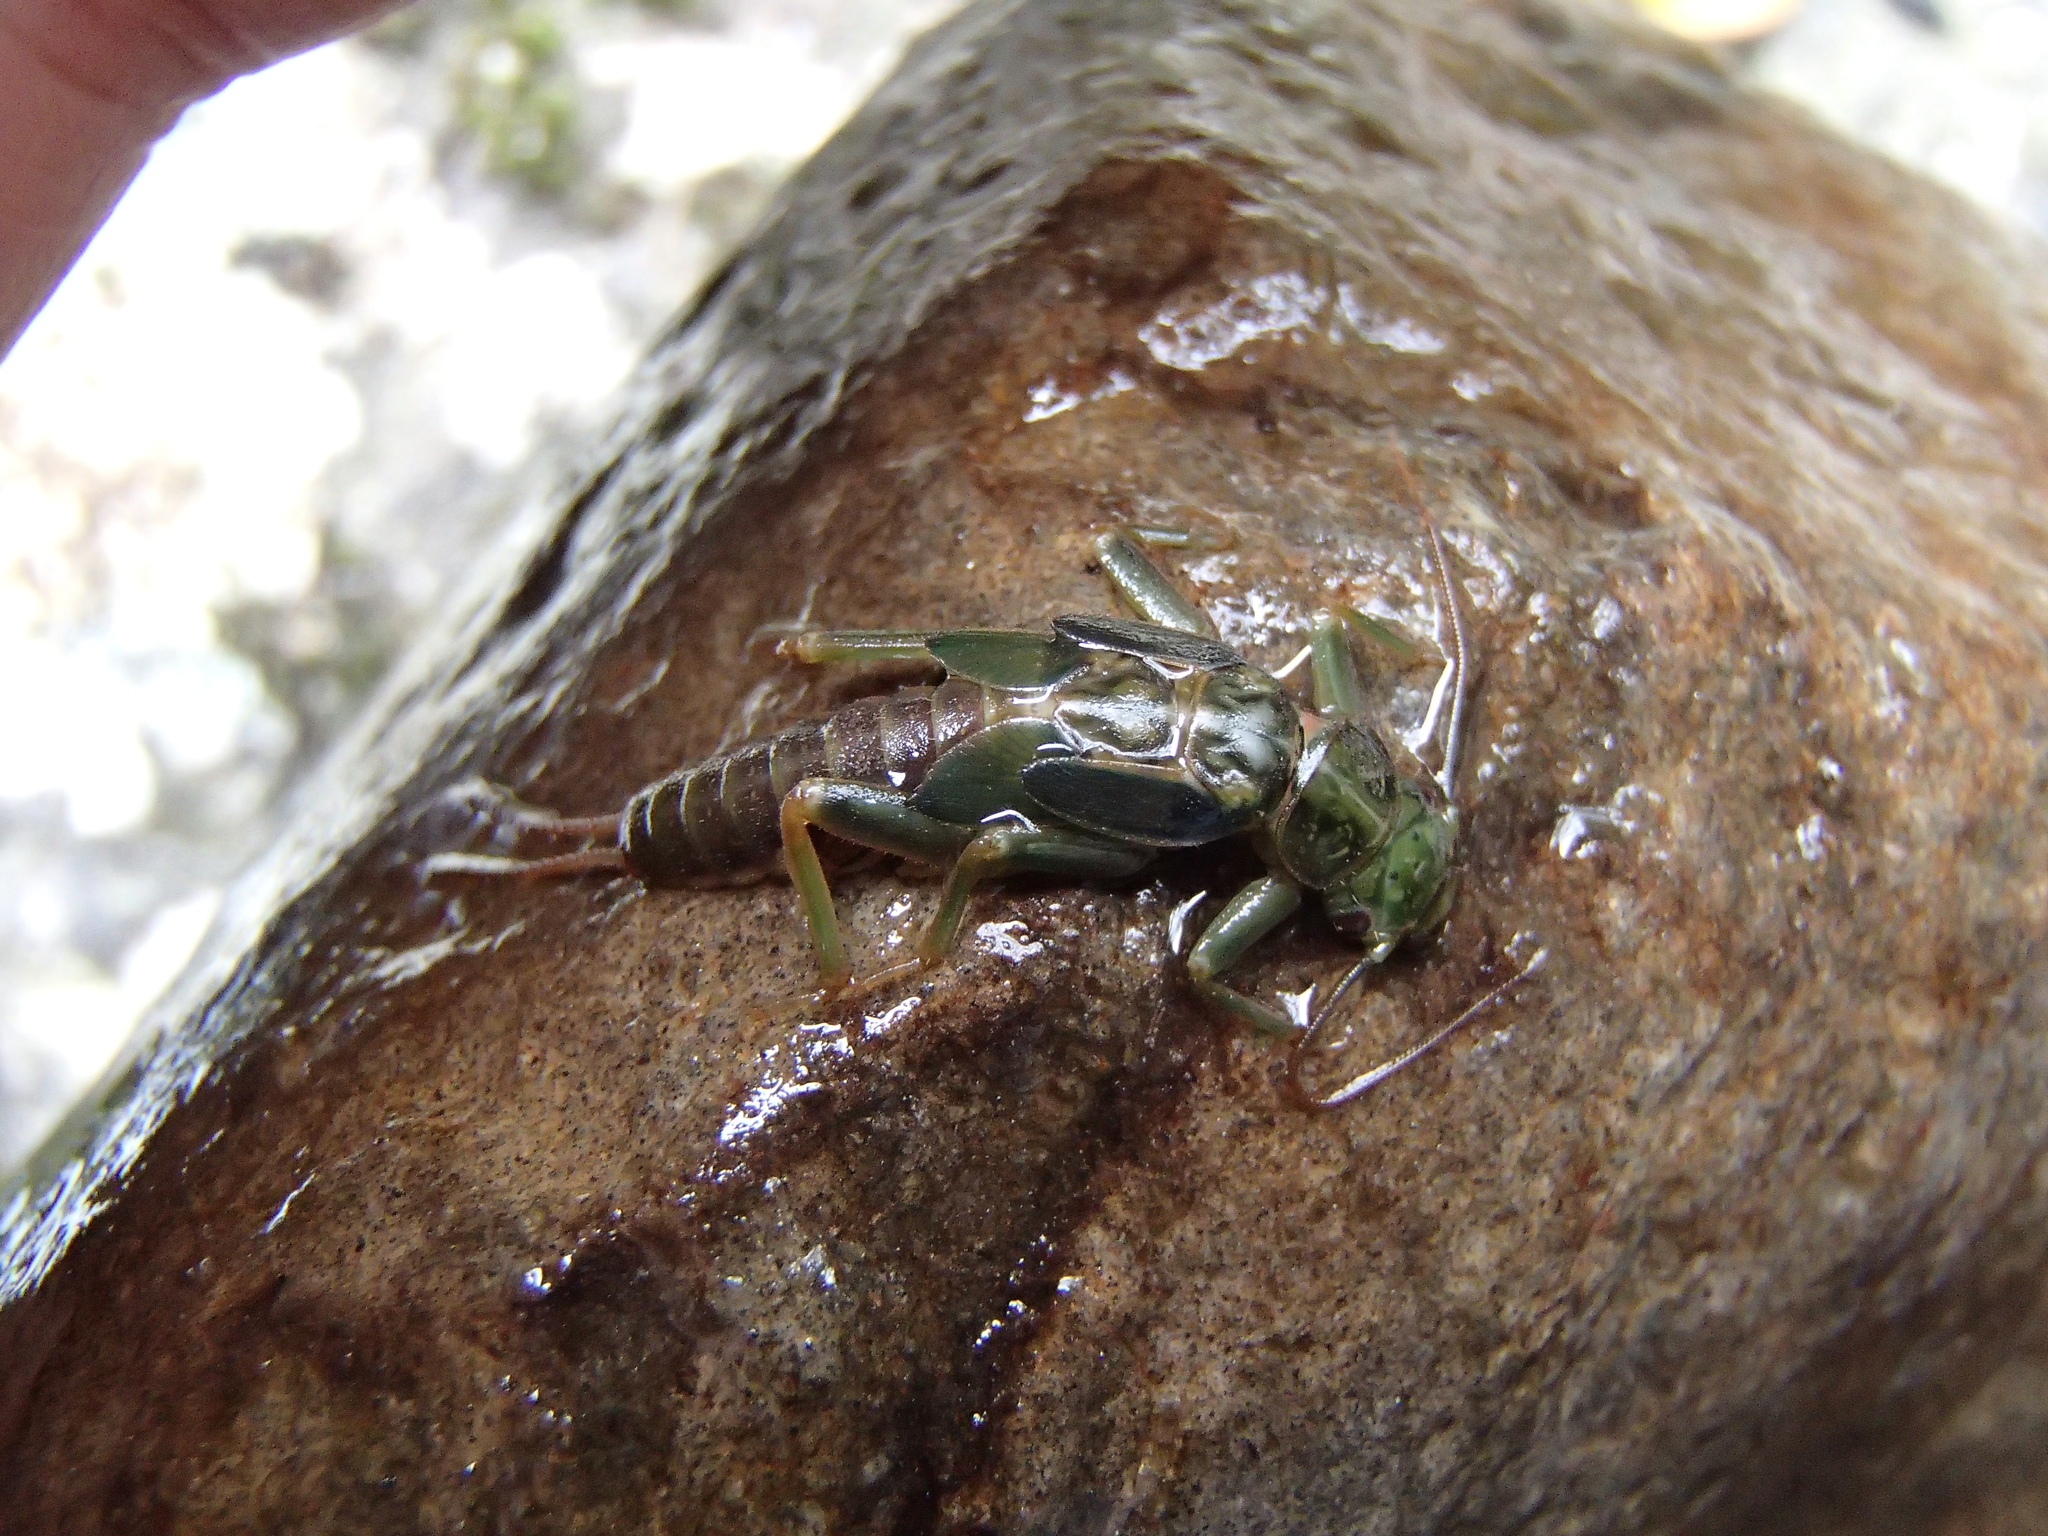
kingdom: Animalia
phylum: Arthropoda
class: Insecta
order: Plecoptera
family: Eustheniidae
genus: Stenoperla
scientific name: Stenoperla prasina
